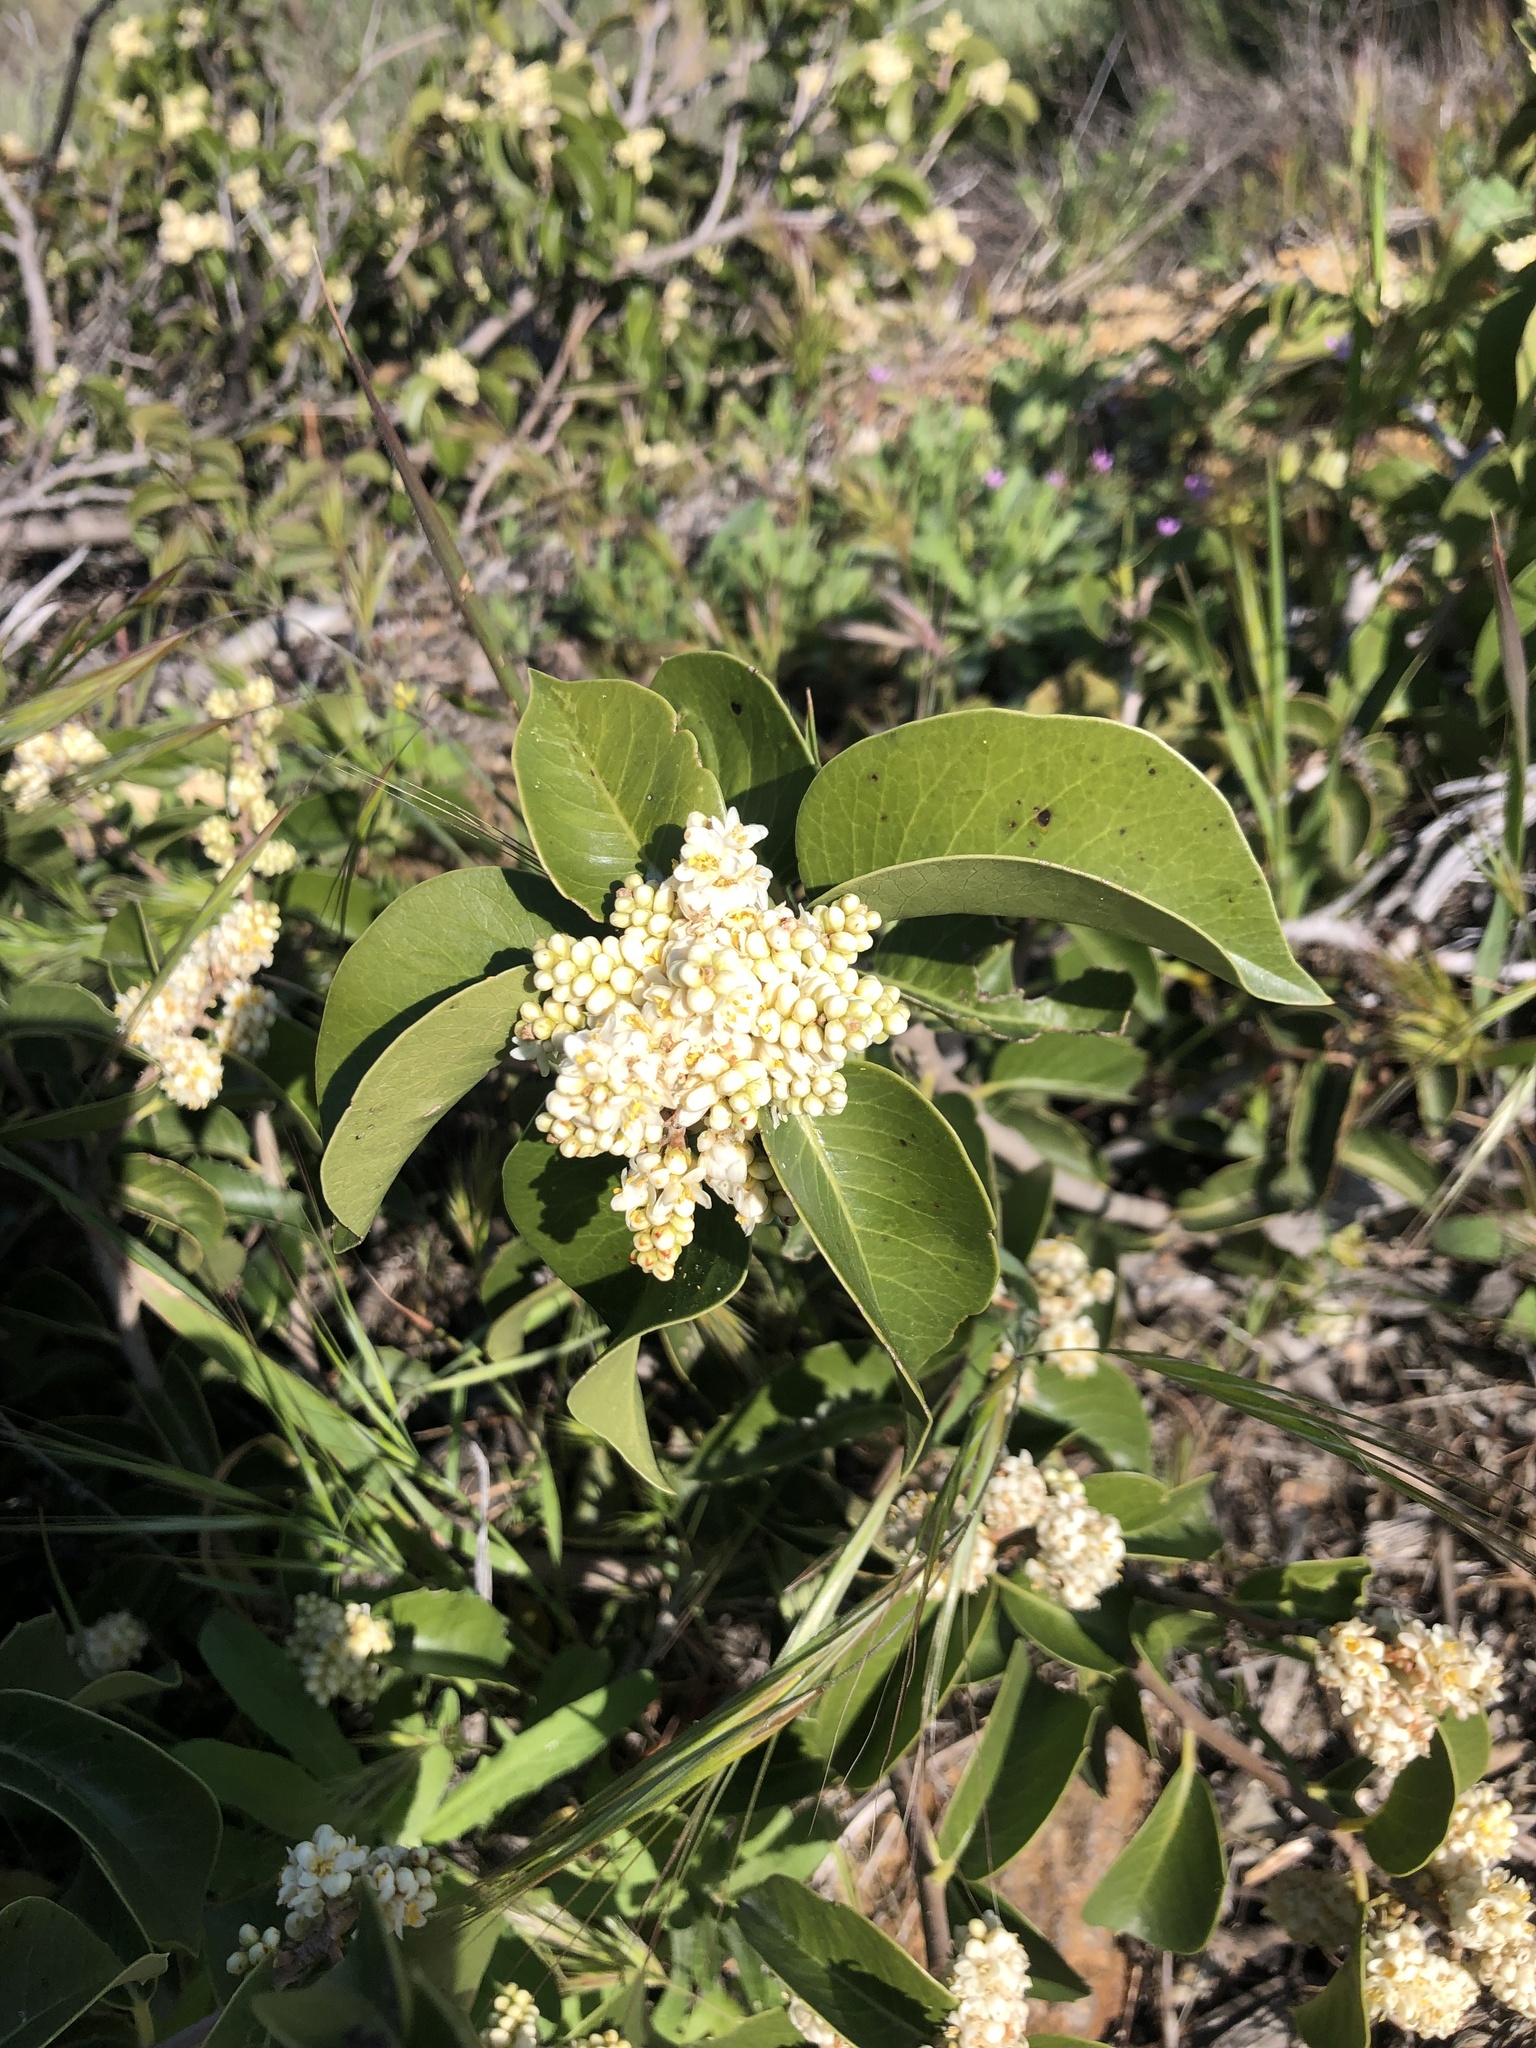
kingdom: Plantae
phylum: Tracheophyta
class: Magnoliopsida
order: Sapindales
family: Anacardiaceae
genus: Rhus
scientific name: Rhus ovata
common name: Sugar sumac
